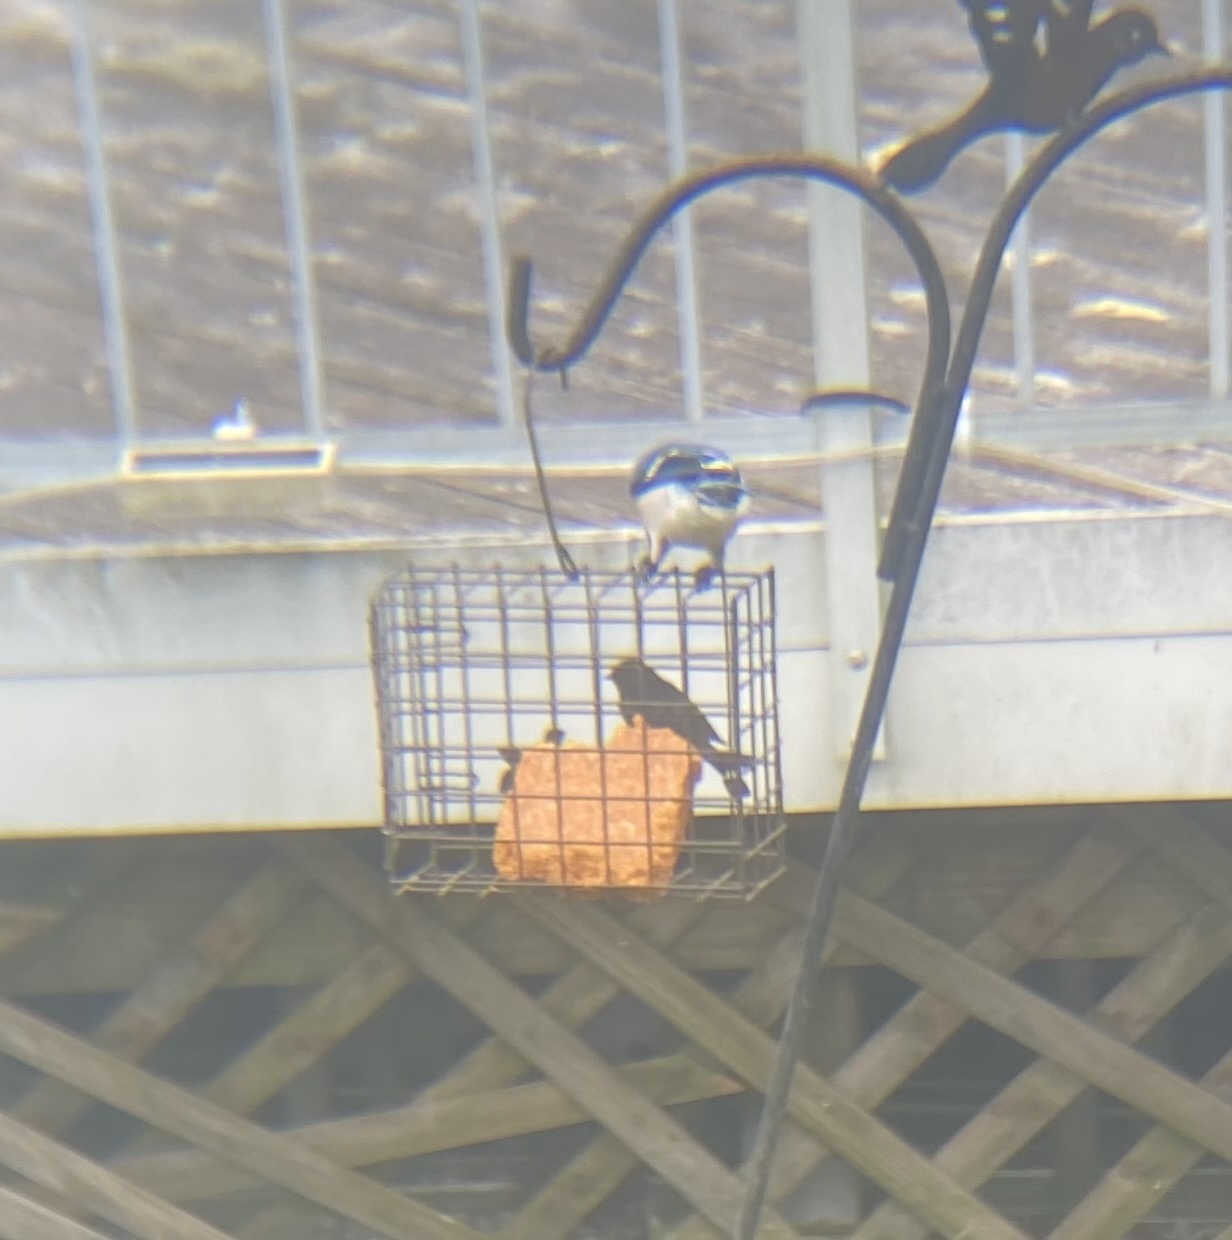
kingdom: Animalia
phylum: Chordata
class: Aves
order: Passeriformes
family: Corvidae
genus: Cyanocitta
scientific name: Cyanocitta cristata
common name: Blue jay
